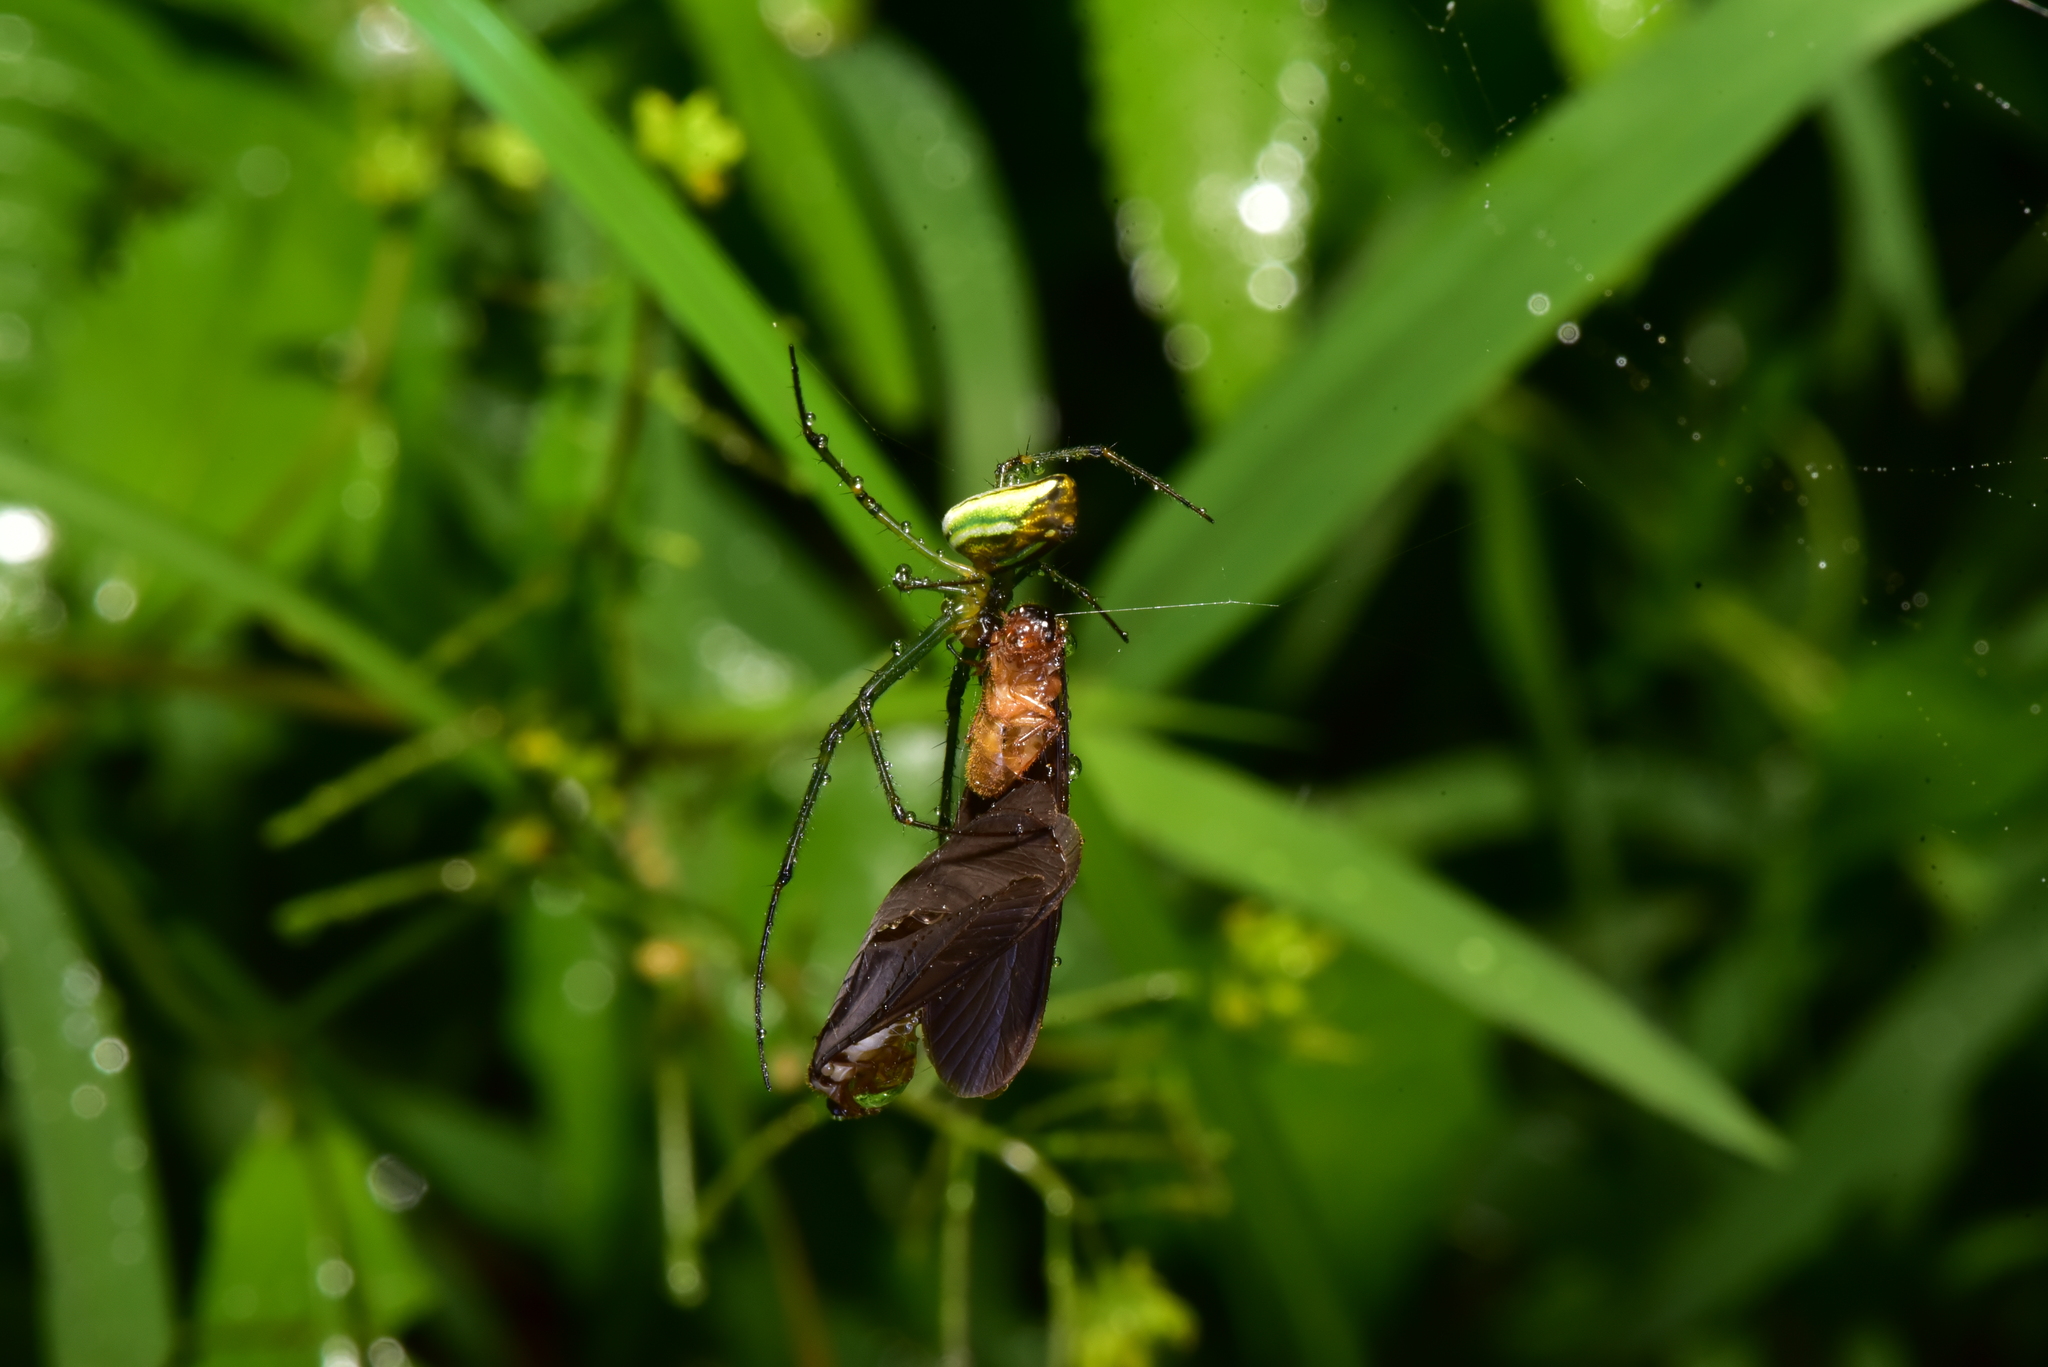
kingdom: Animalia
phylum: Arthropoda
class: Arachnida
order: Araneae
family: Tetragnathidae
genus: Leucauge
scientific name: Leucauge blanda
